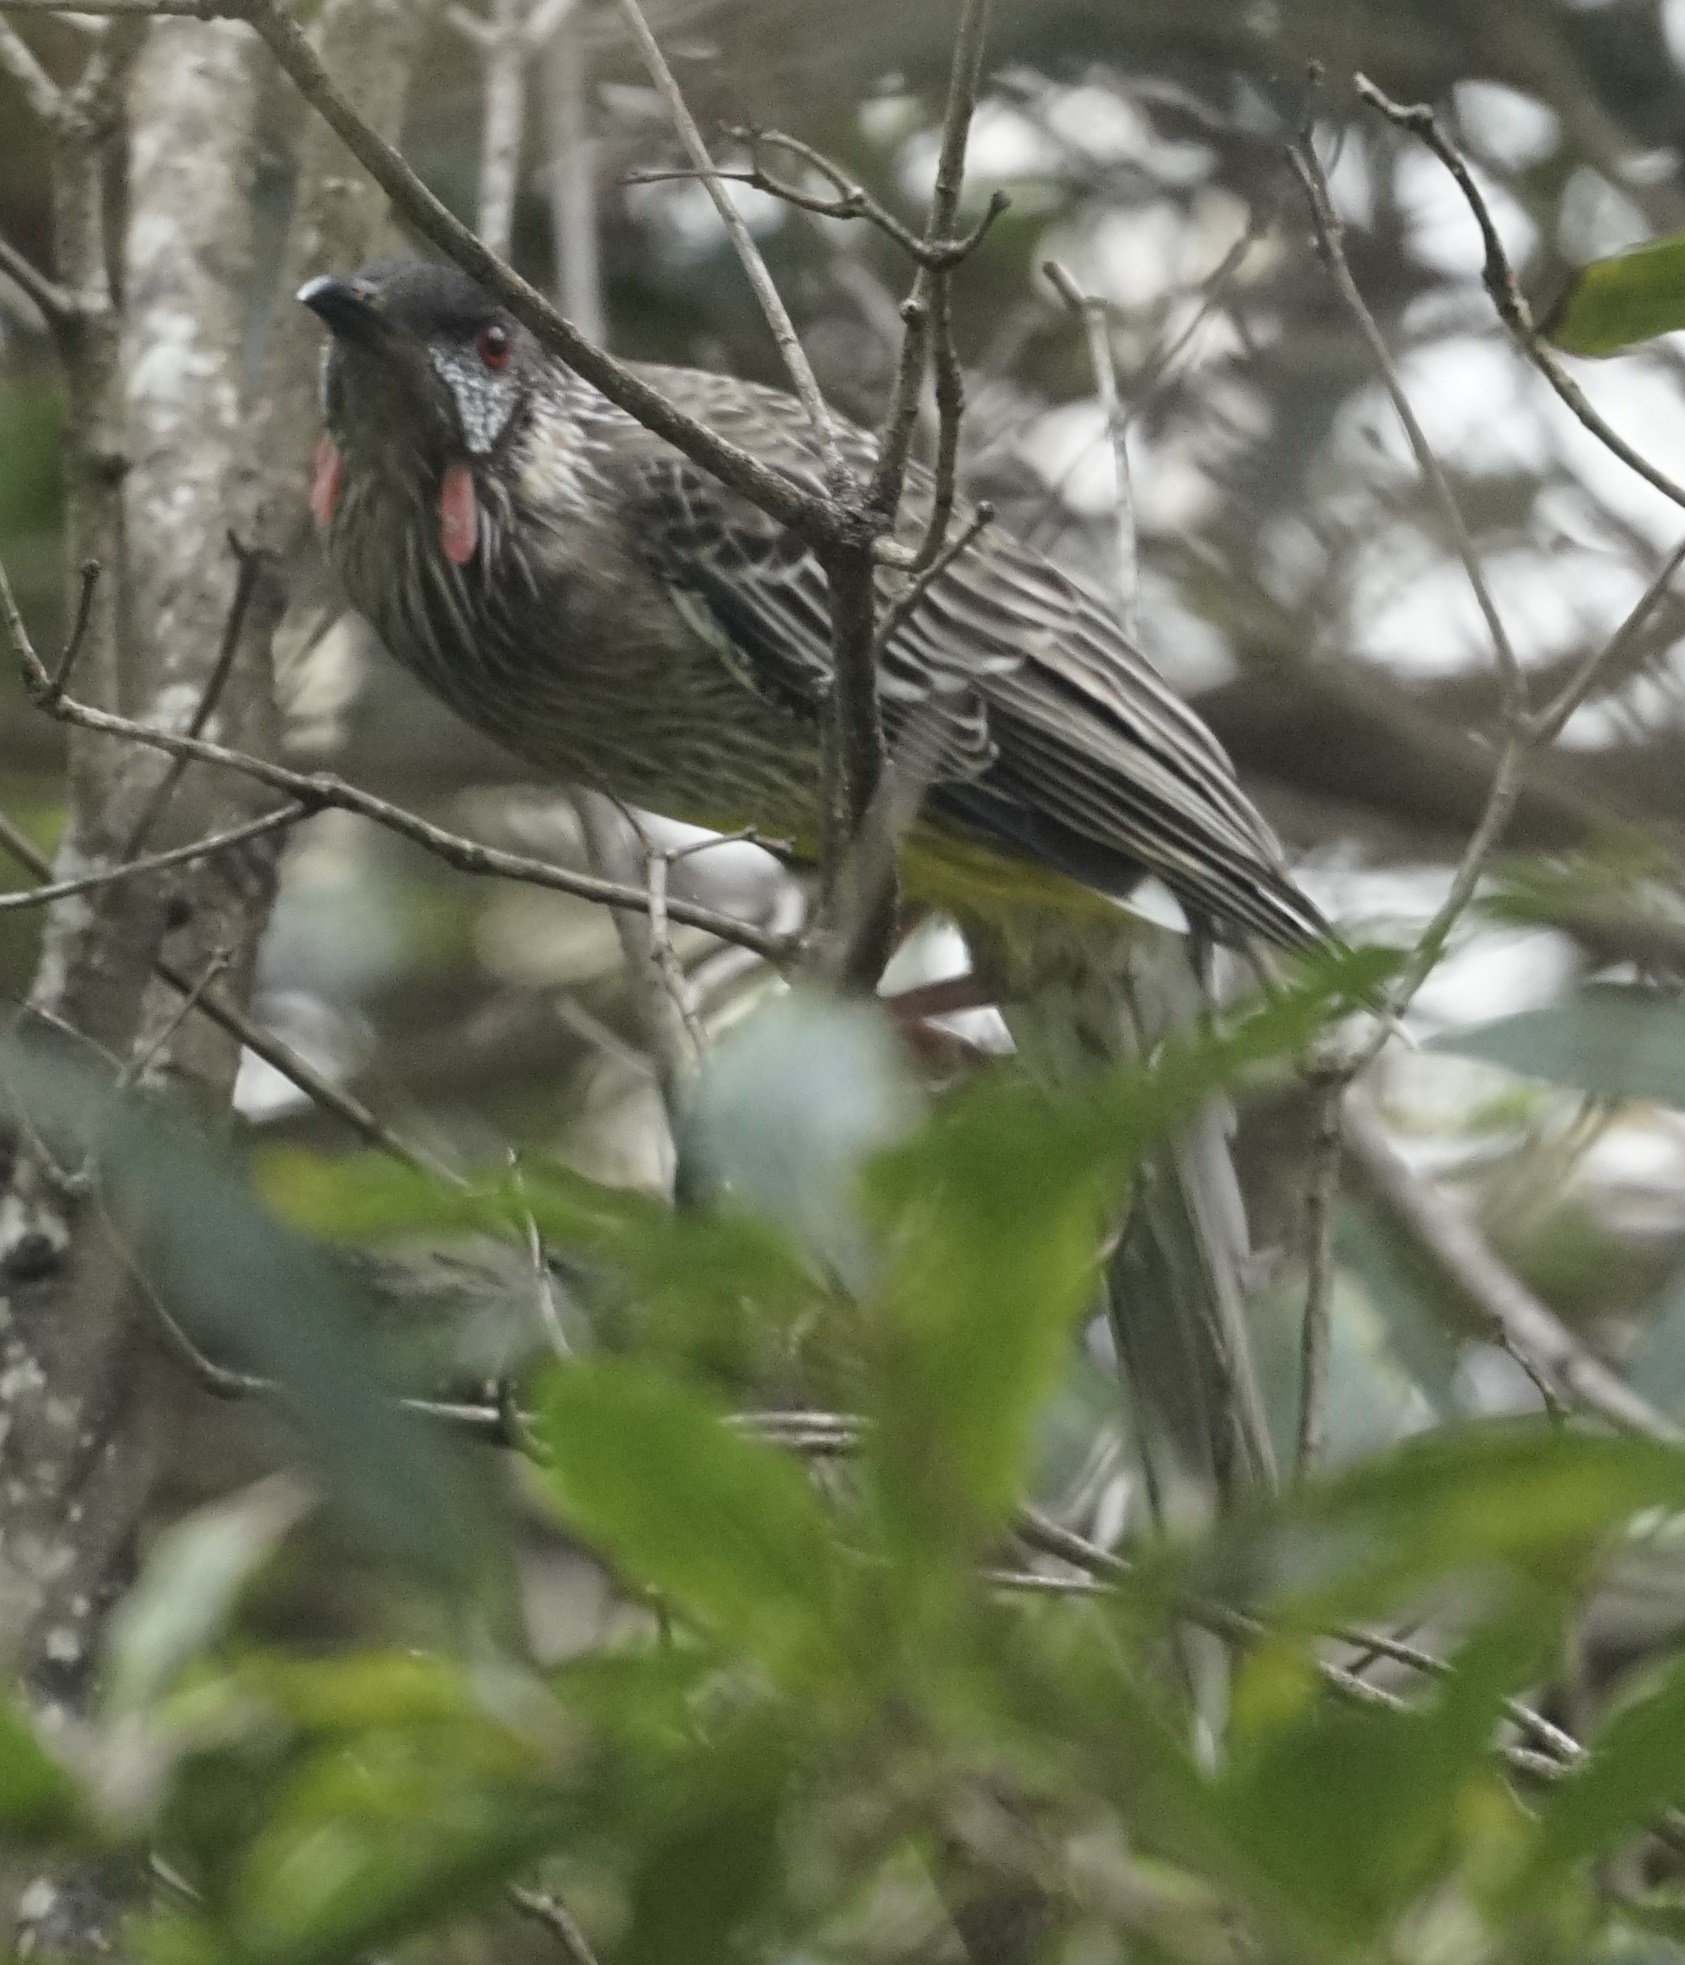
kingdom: Animalia
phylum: Chordata
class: Aves
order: Passeriformes
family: Meliphagidae
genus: Anthochaera
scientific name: Anthochaera carunculata
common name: Red wattlebird
